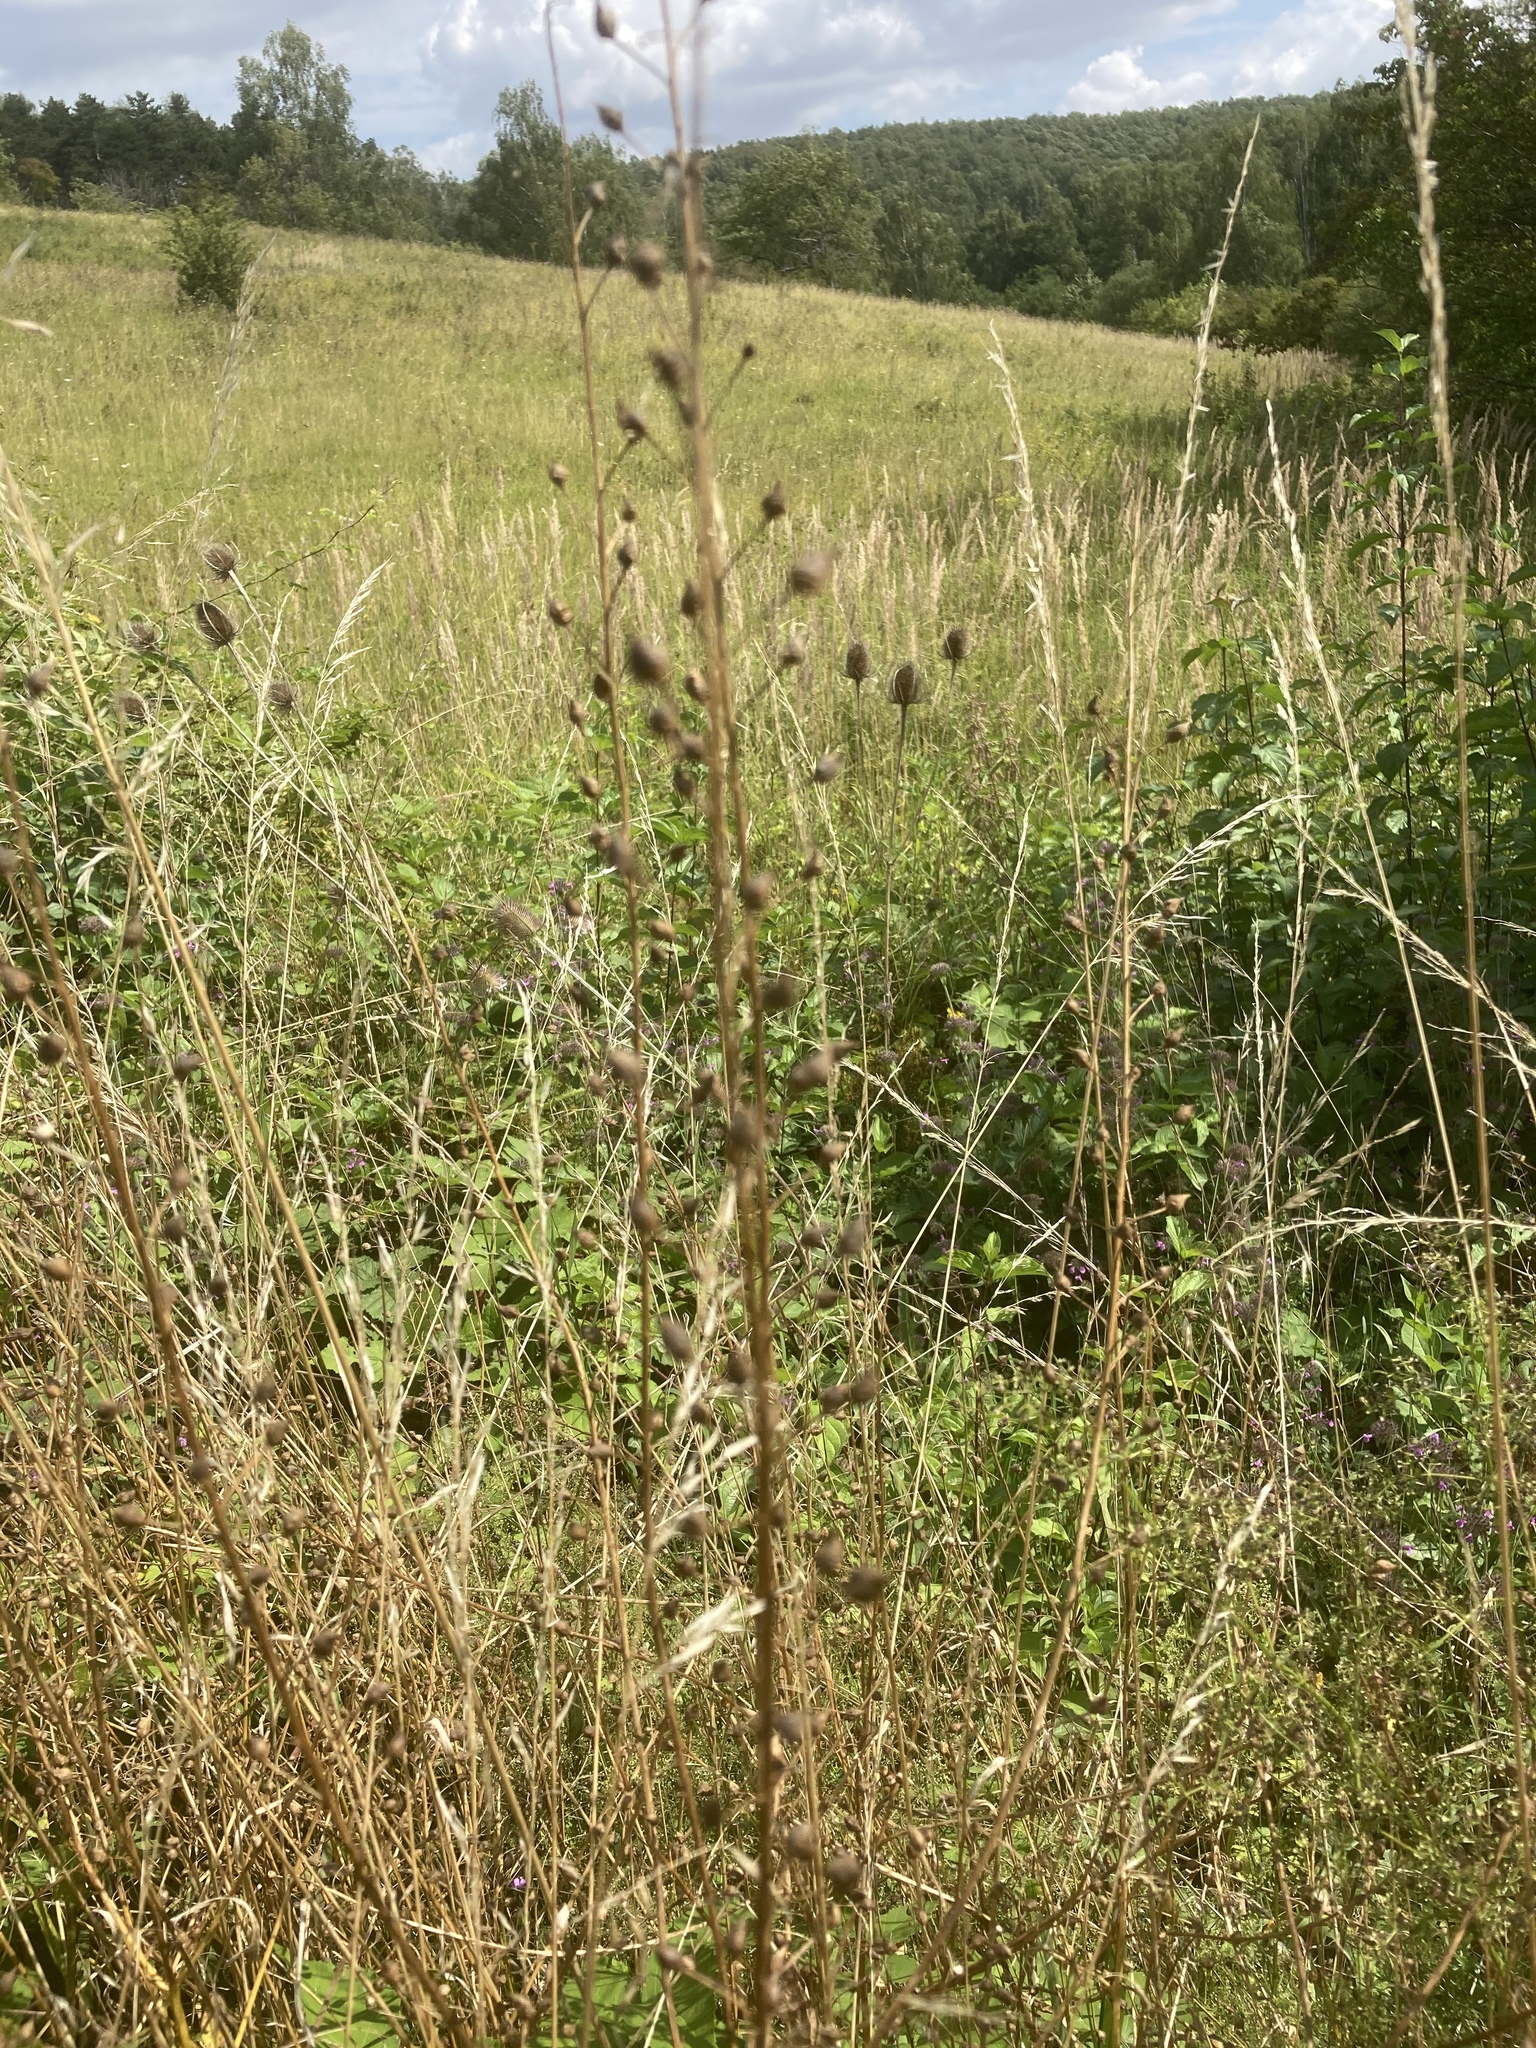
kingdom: Plantae
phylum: Tracheophyta
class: Magnoliopsida
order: Brassicales
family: Brassicaceae
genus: Bunias
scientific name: Bunias orientalis
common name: Warty-cabbage
